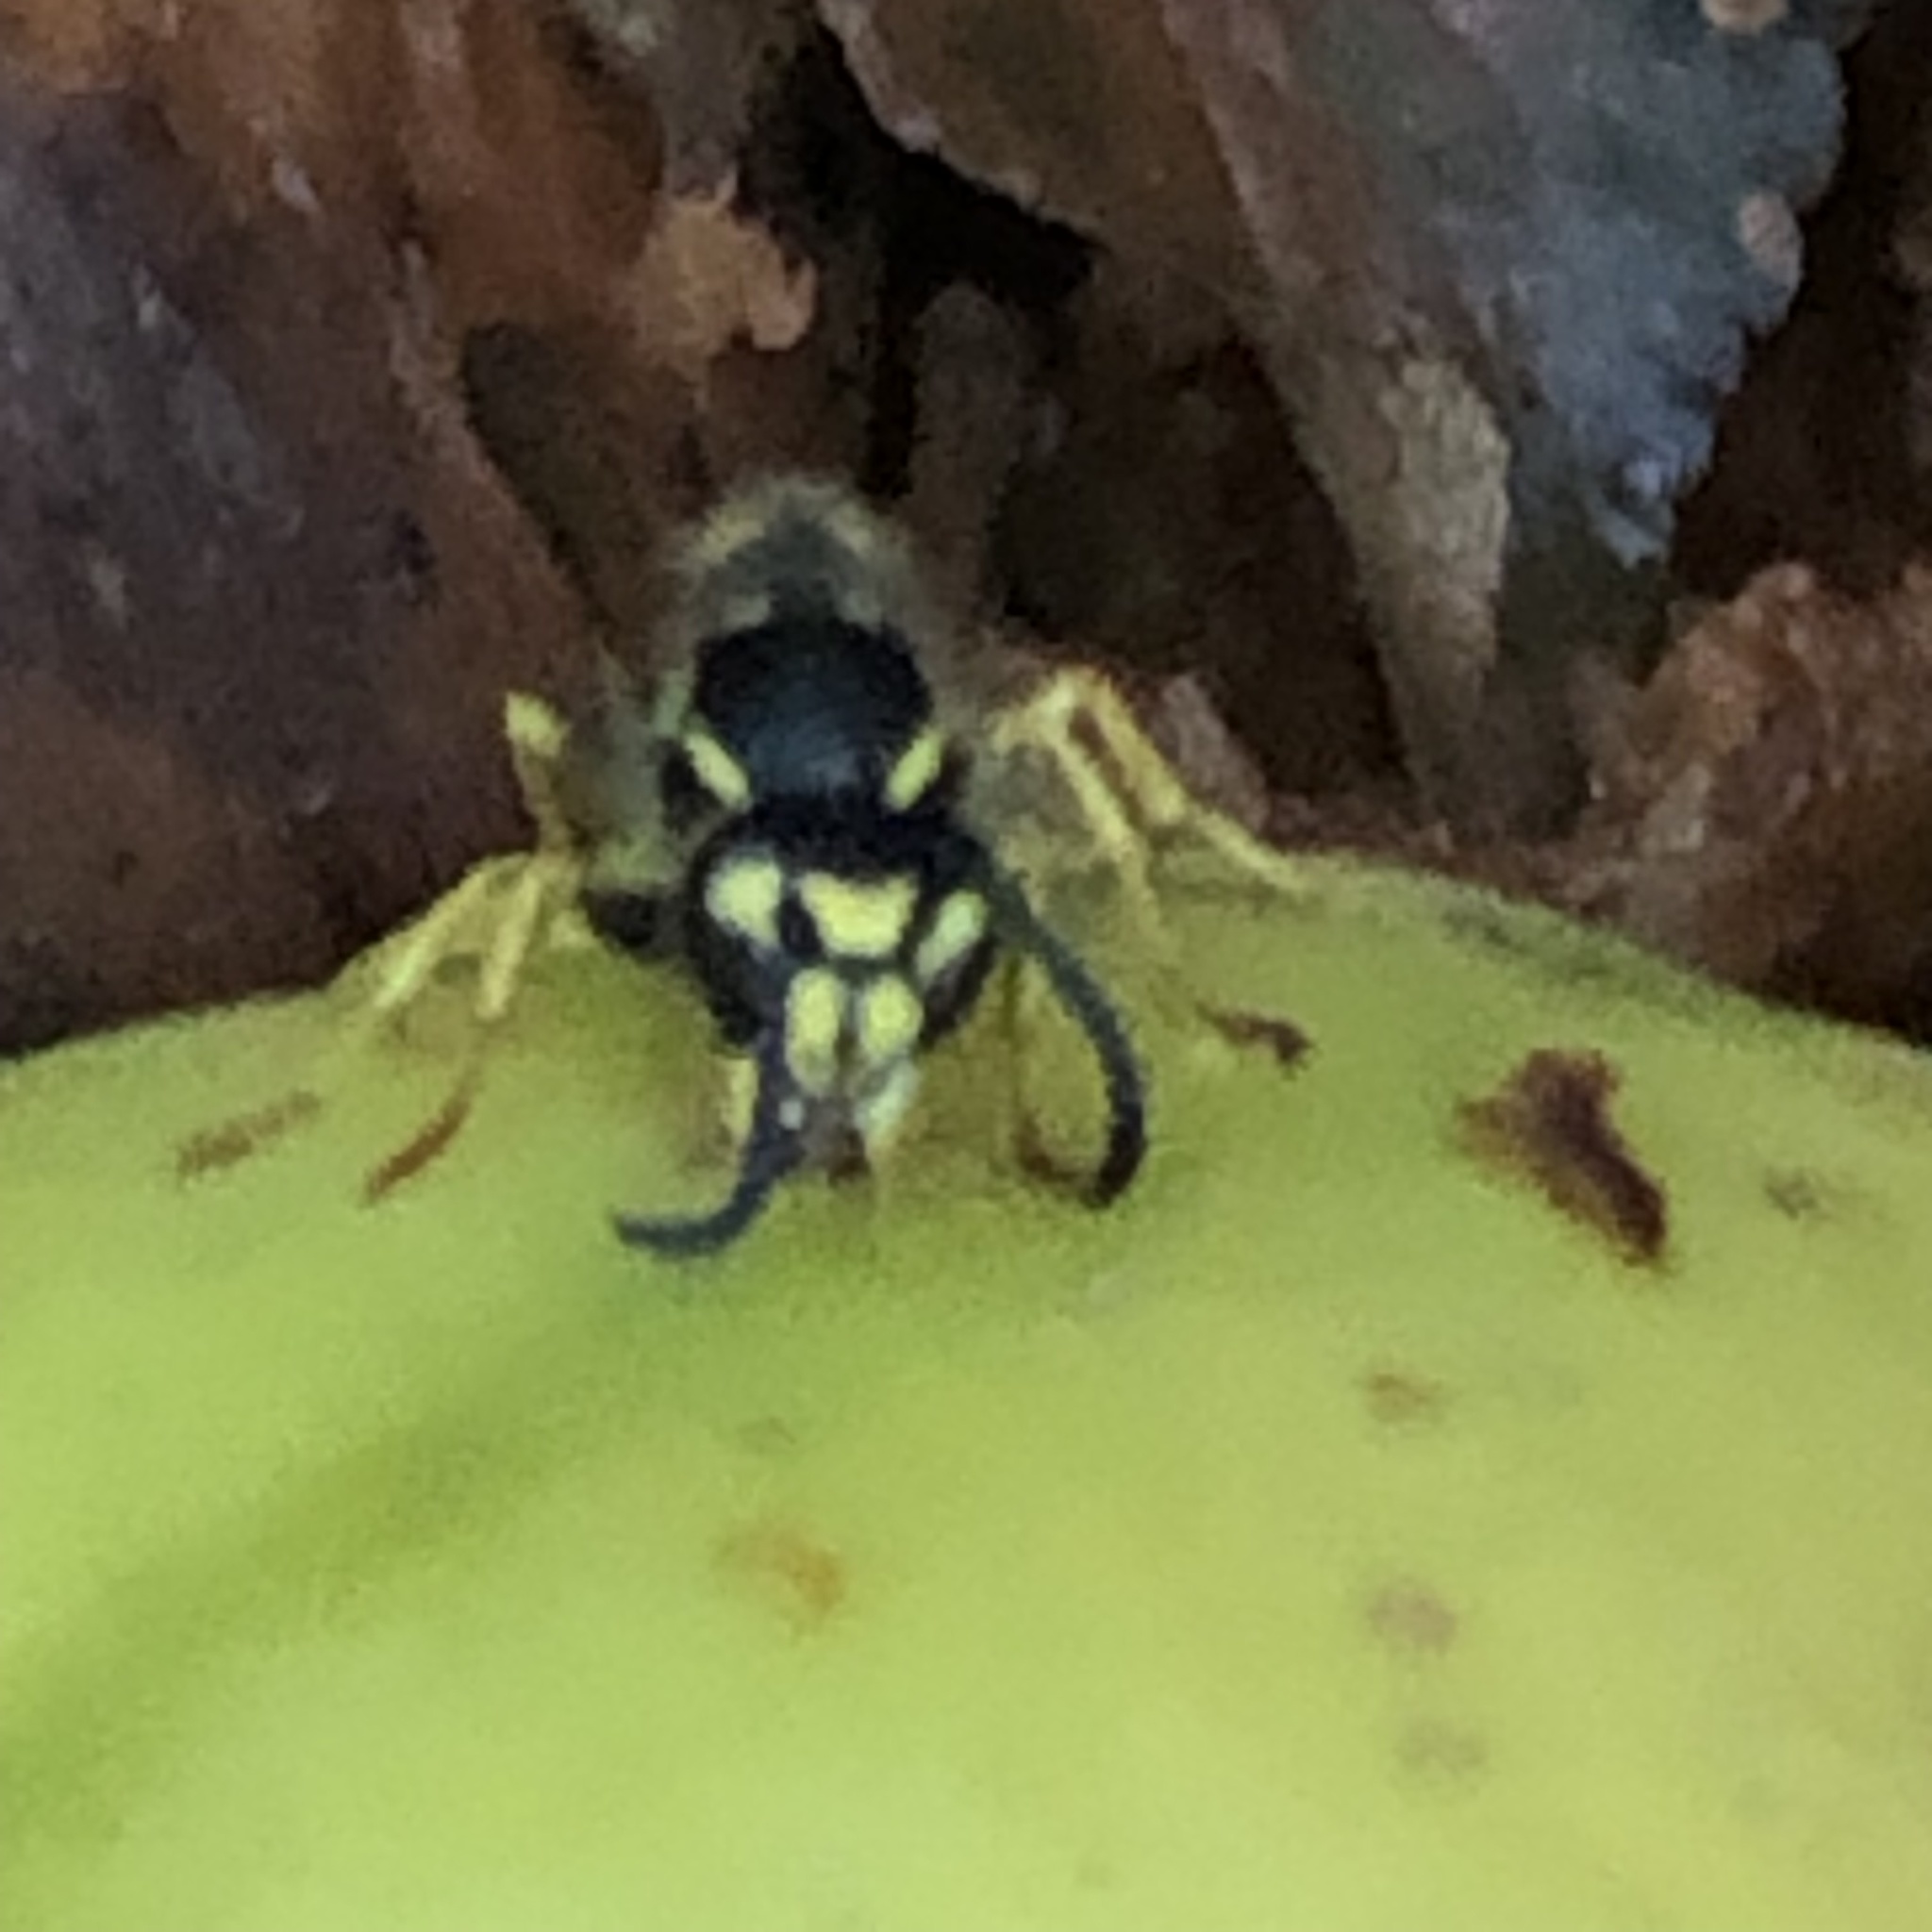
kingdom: Animalia
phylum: Arthropoda
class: Insecta
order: Hymenoptera
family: Vespidae
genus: Vespula
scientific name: Vespula
